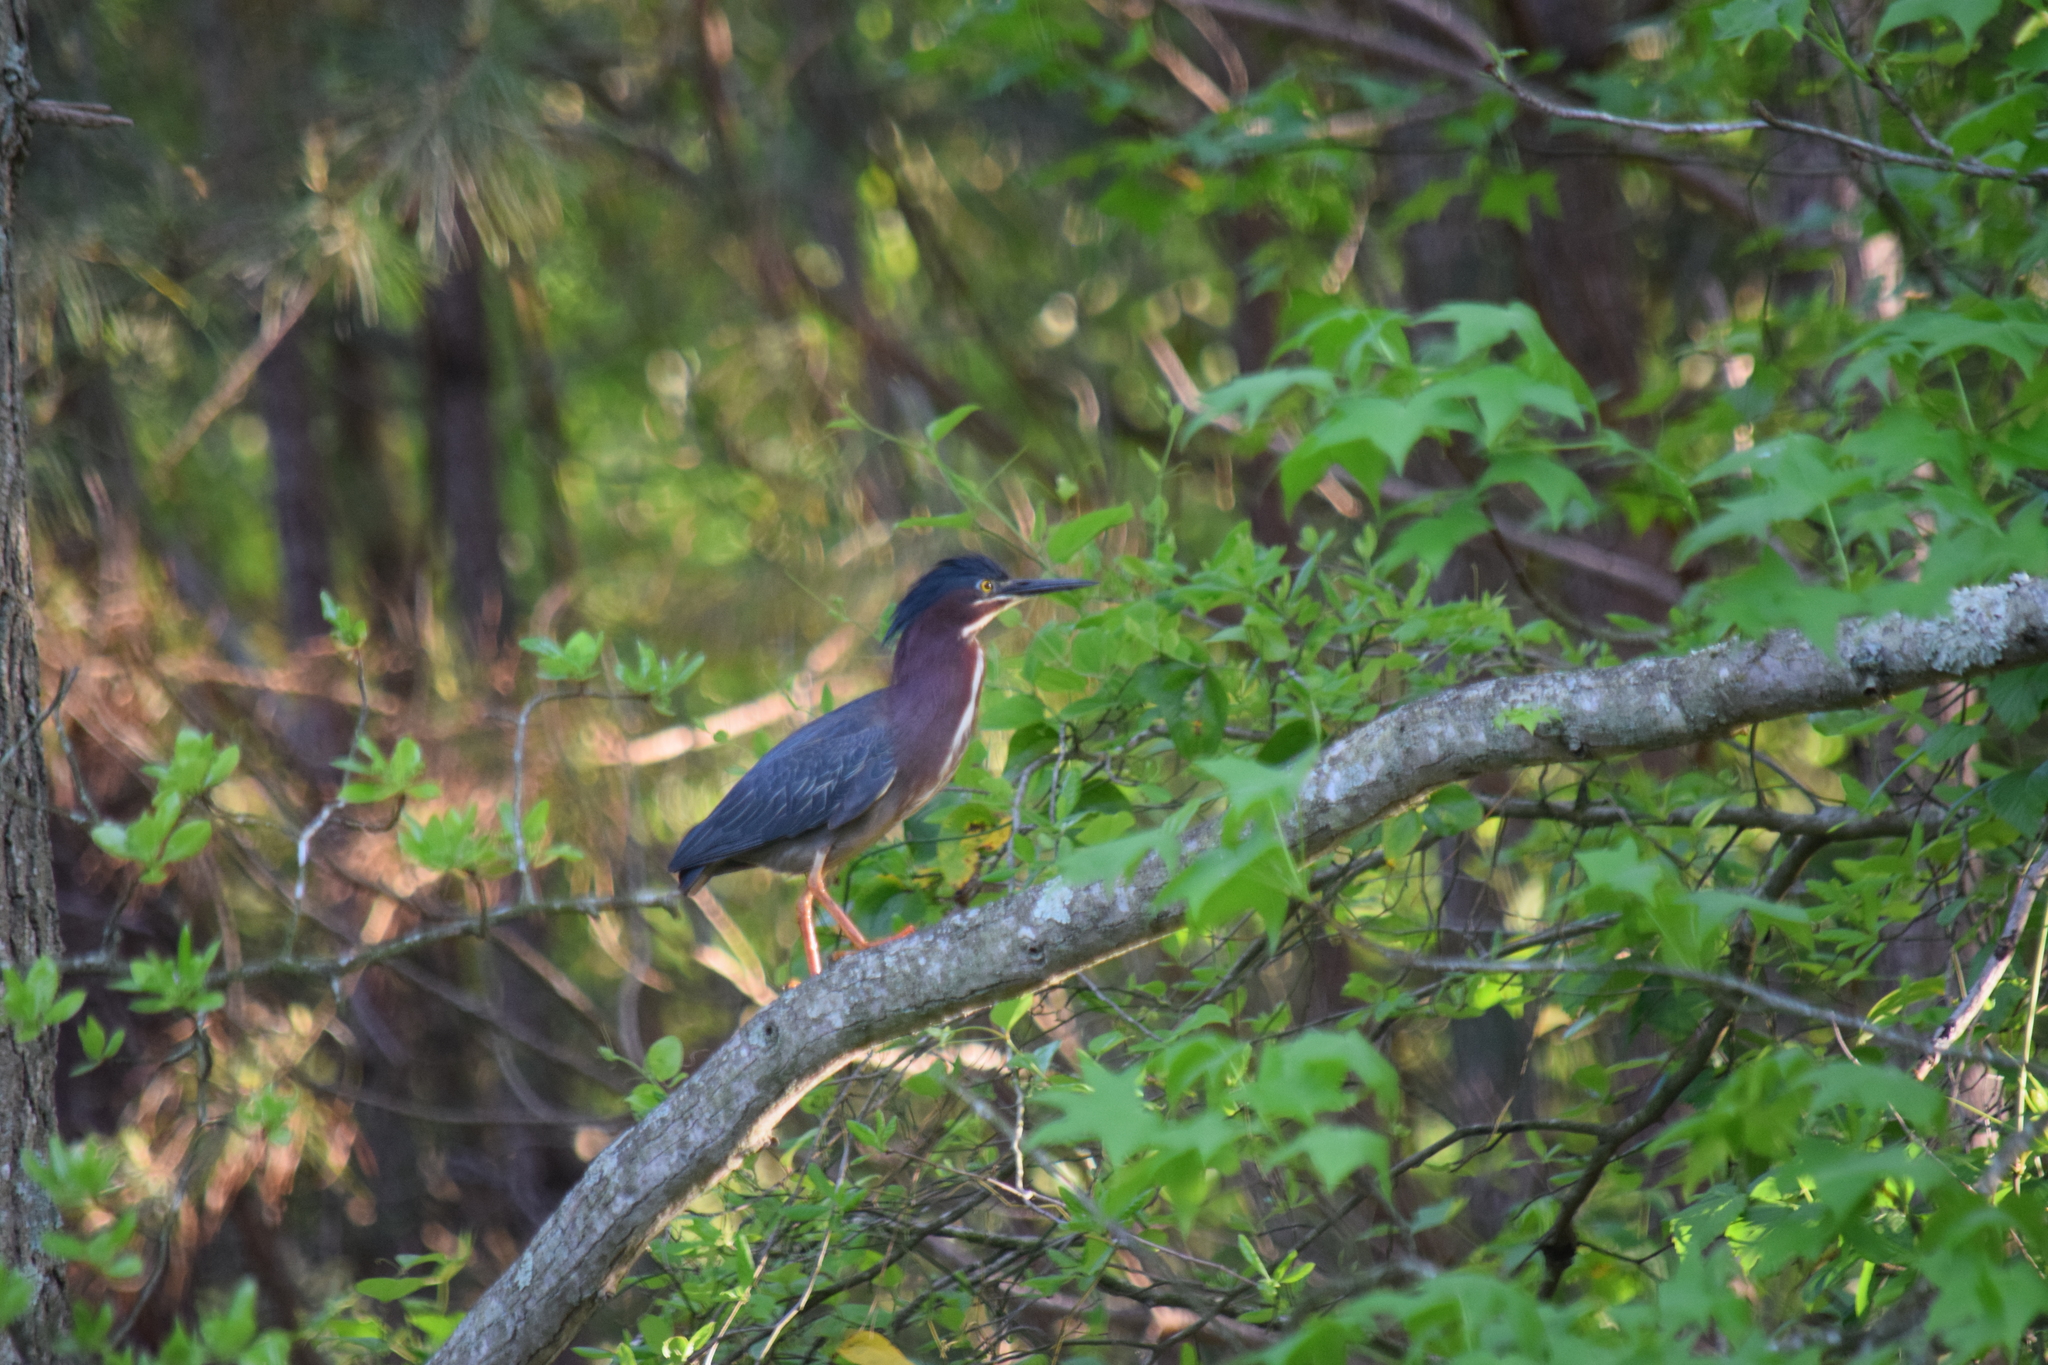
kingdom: Animalia
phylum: Chordata
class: Aves
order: Pelecaniformes
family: Ardeidae
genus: Butorides
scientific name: Butorides virescens
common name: Green heron
